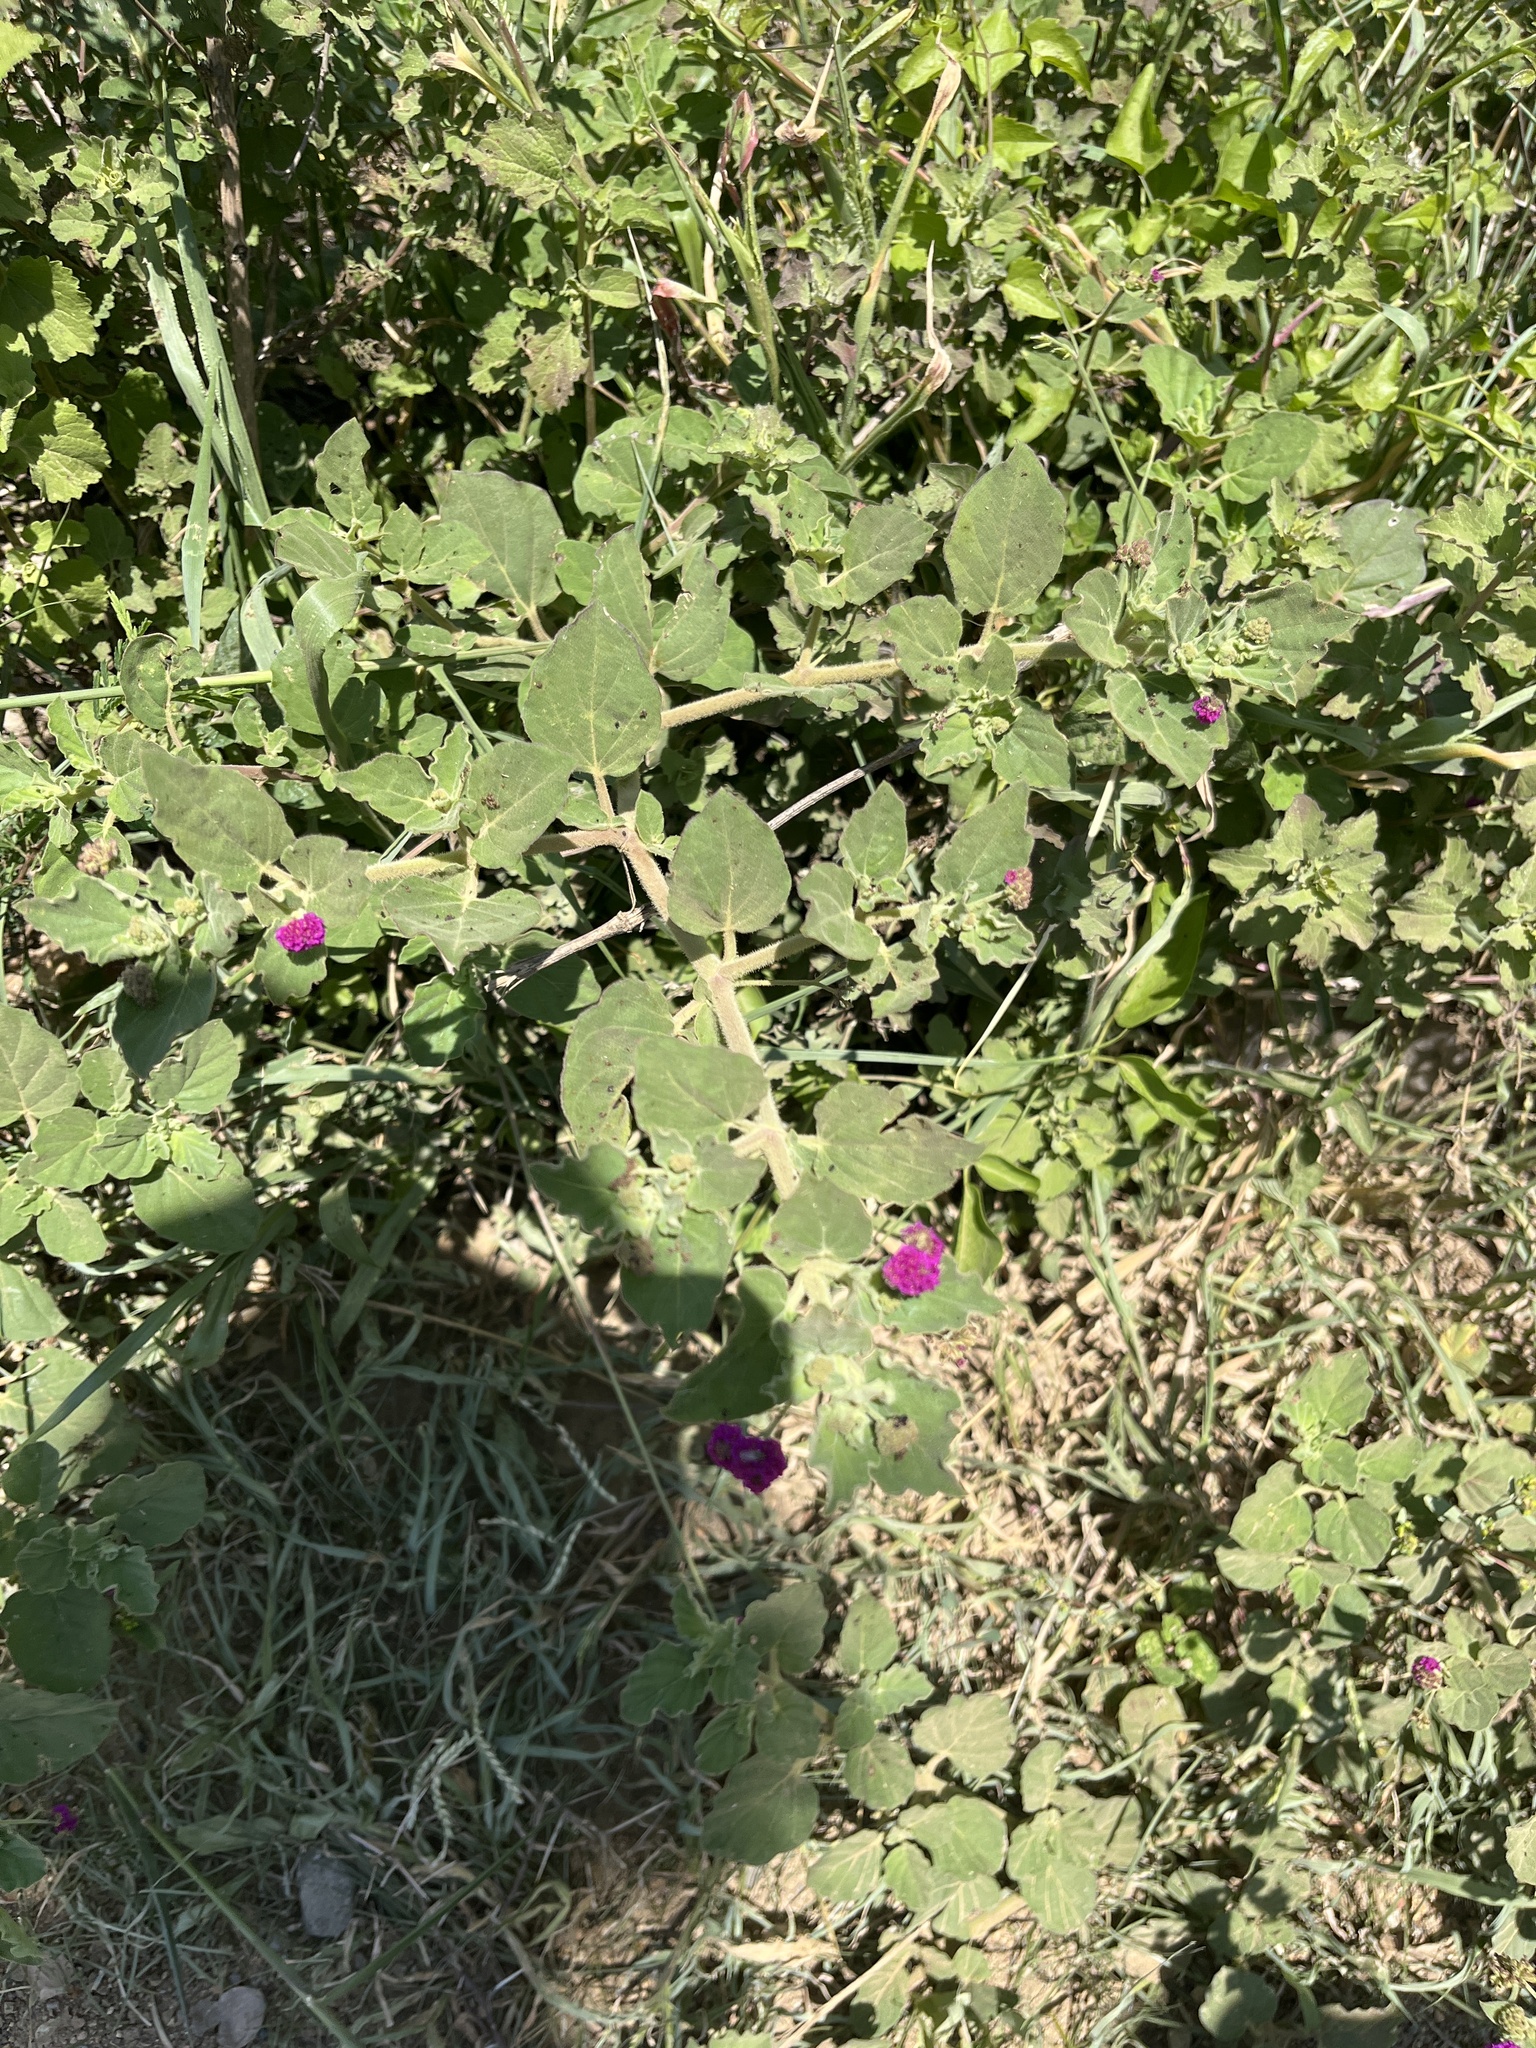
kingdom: Plantae
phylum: Tracheophyta
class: Magnoliopsida
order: Caryophyllales
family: Nyctaginaceae
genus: Boerhavia
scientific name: Boerhavia coccinea
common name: Scarlet spiderling
